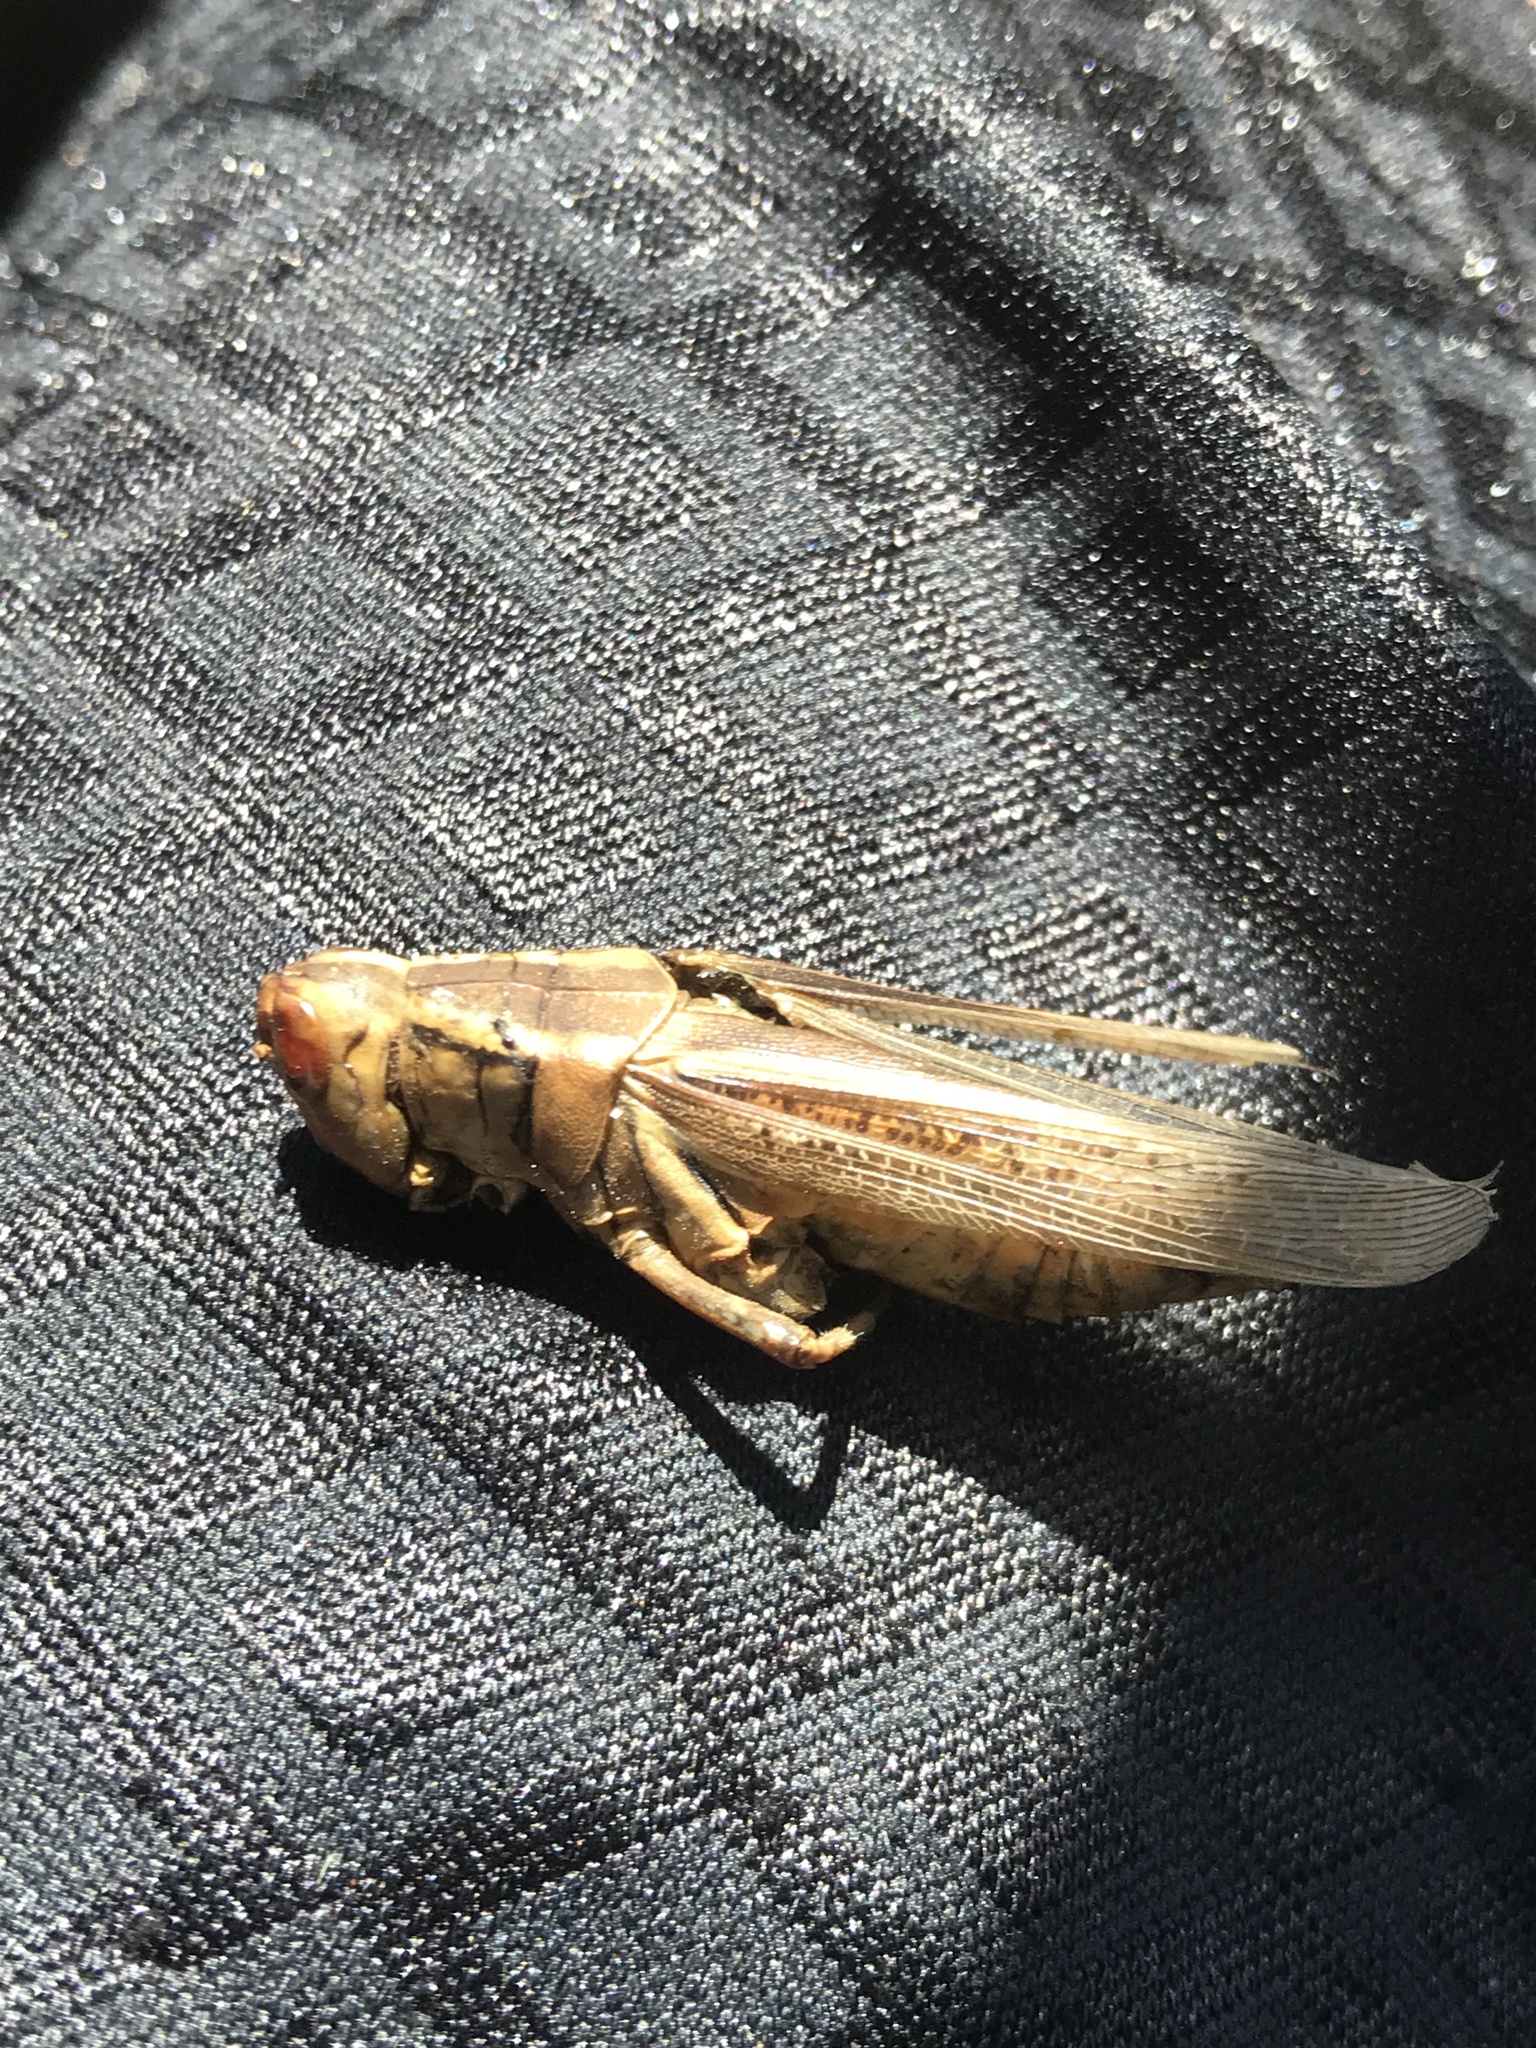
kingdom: Animalia
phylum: Arthropoda
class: Insecta
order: Orthoptera
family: Acrididae
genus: Melanoplus
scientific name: Melanoplus bivittatus
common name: Two-striped grasshopper
